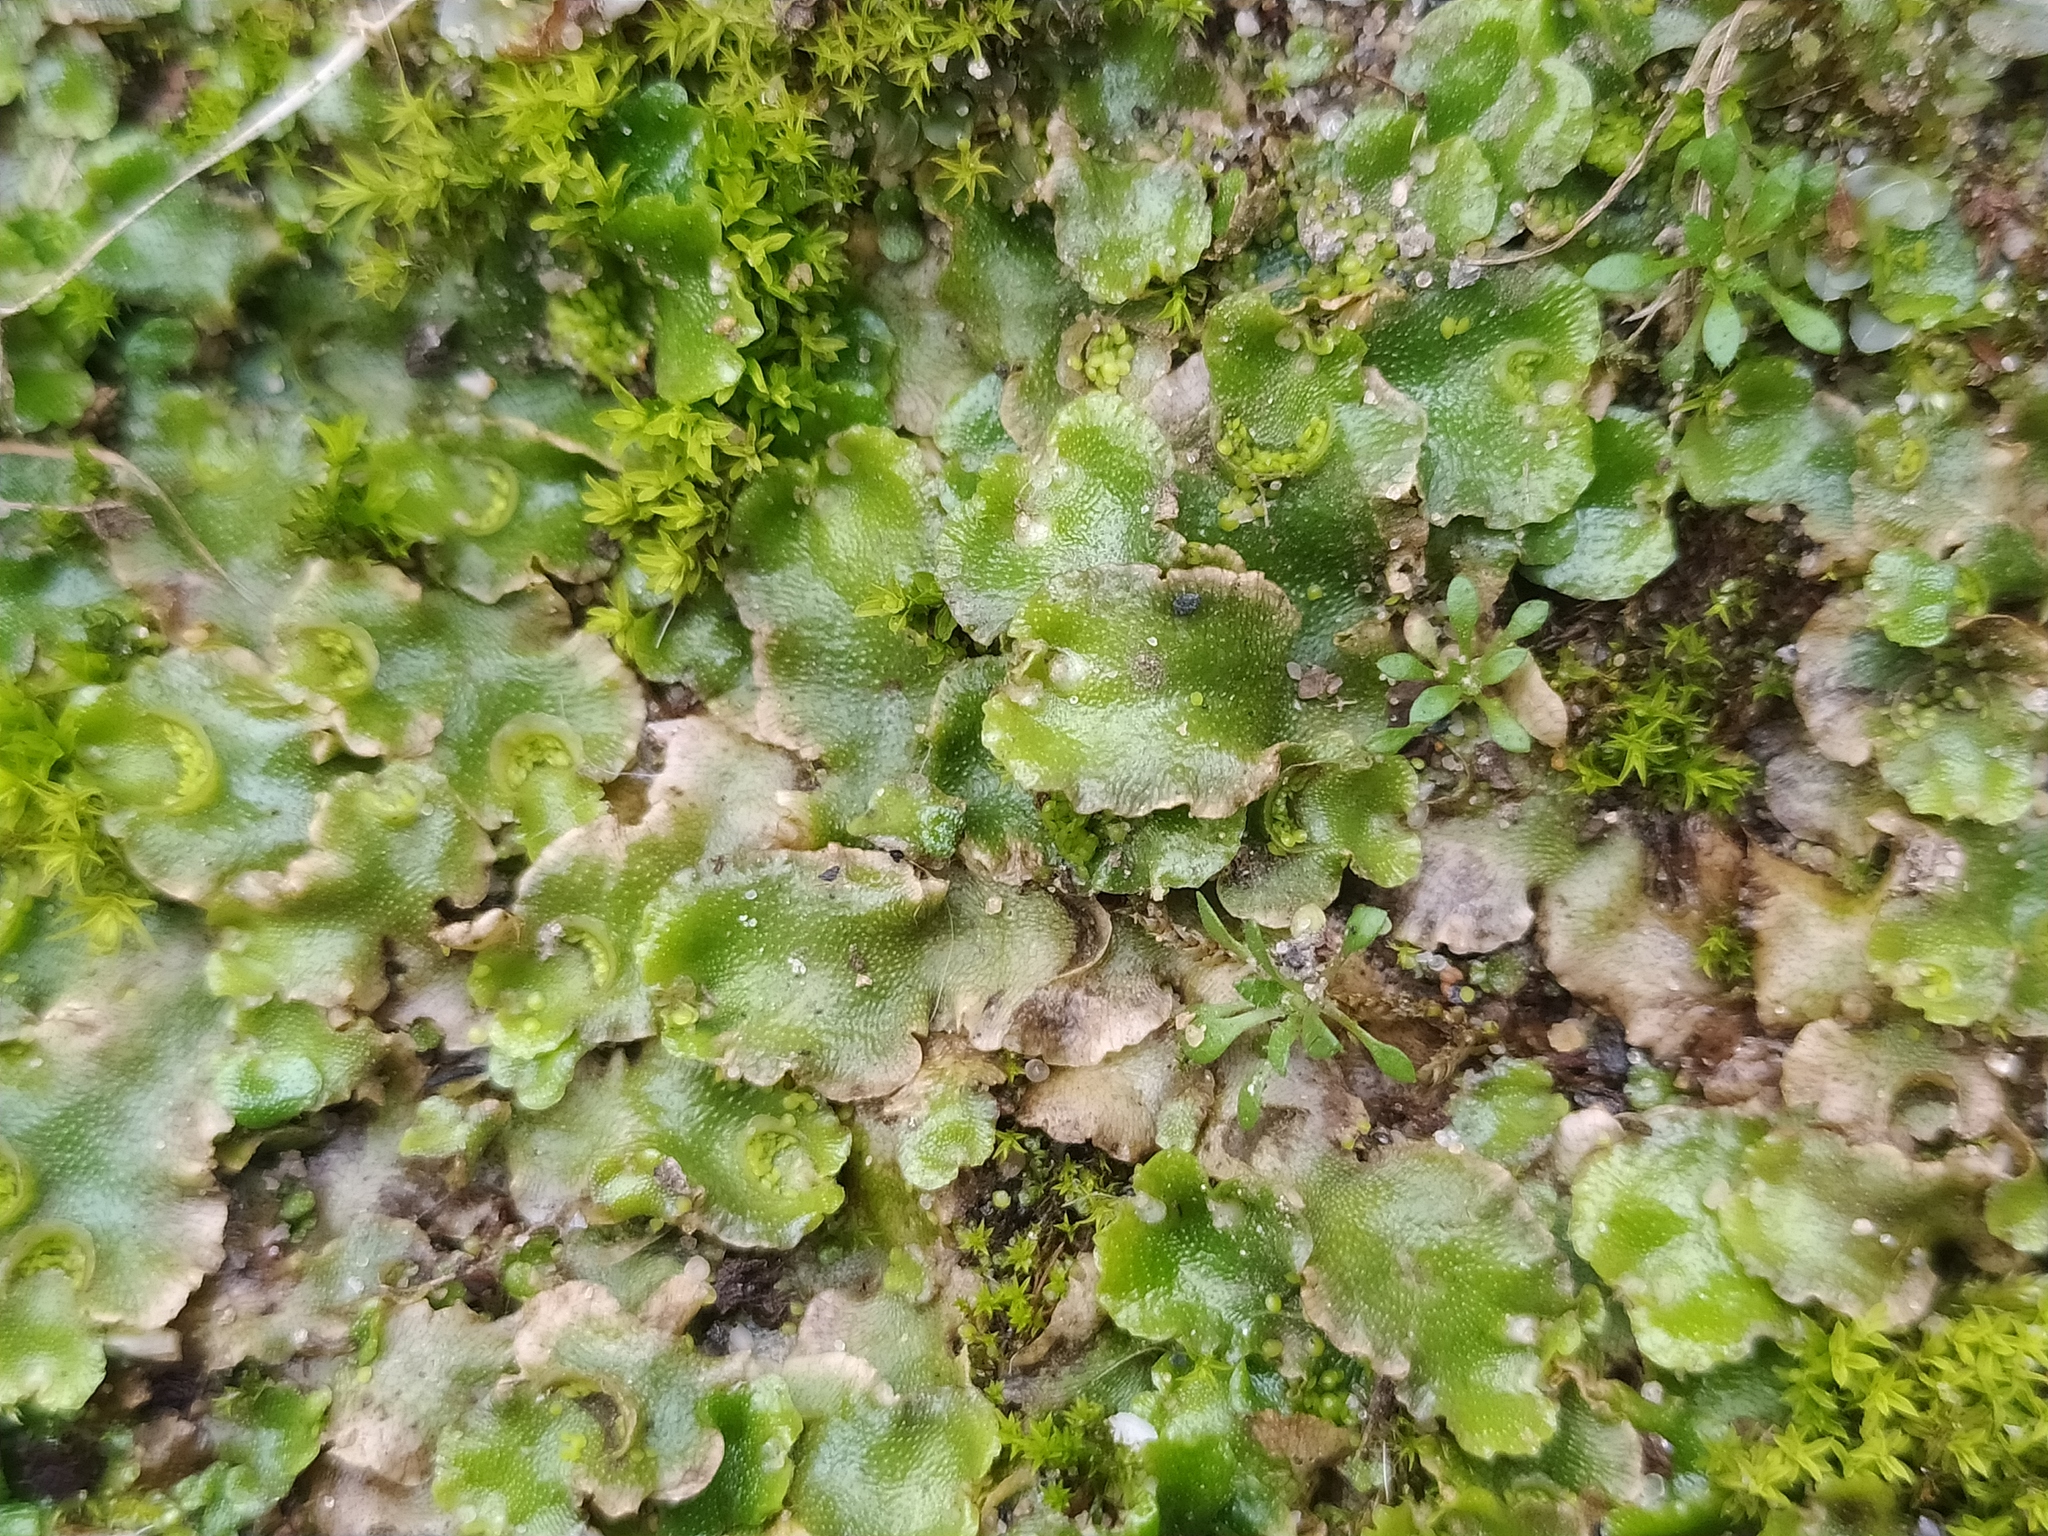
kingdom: Plantae
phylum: Marchantiophyta
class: Marchantiopsida
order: Lunulariales
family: Lunulariaceae
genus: Lunularia
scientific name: Lunularia cruciata
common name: Crescent-cup liverwort
